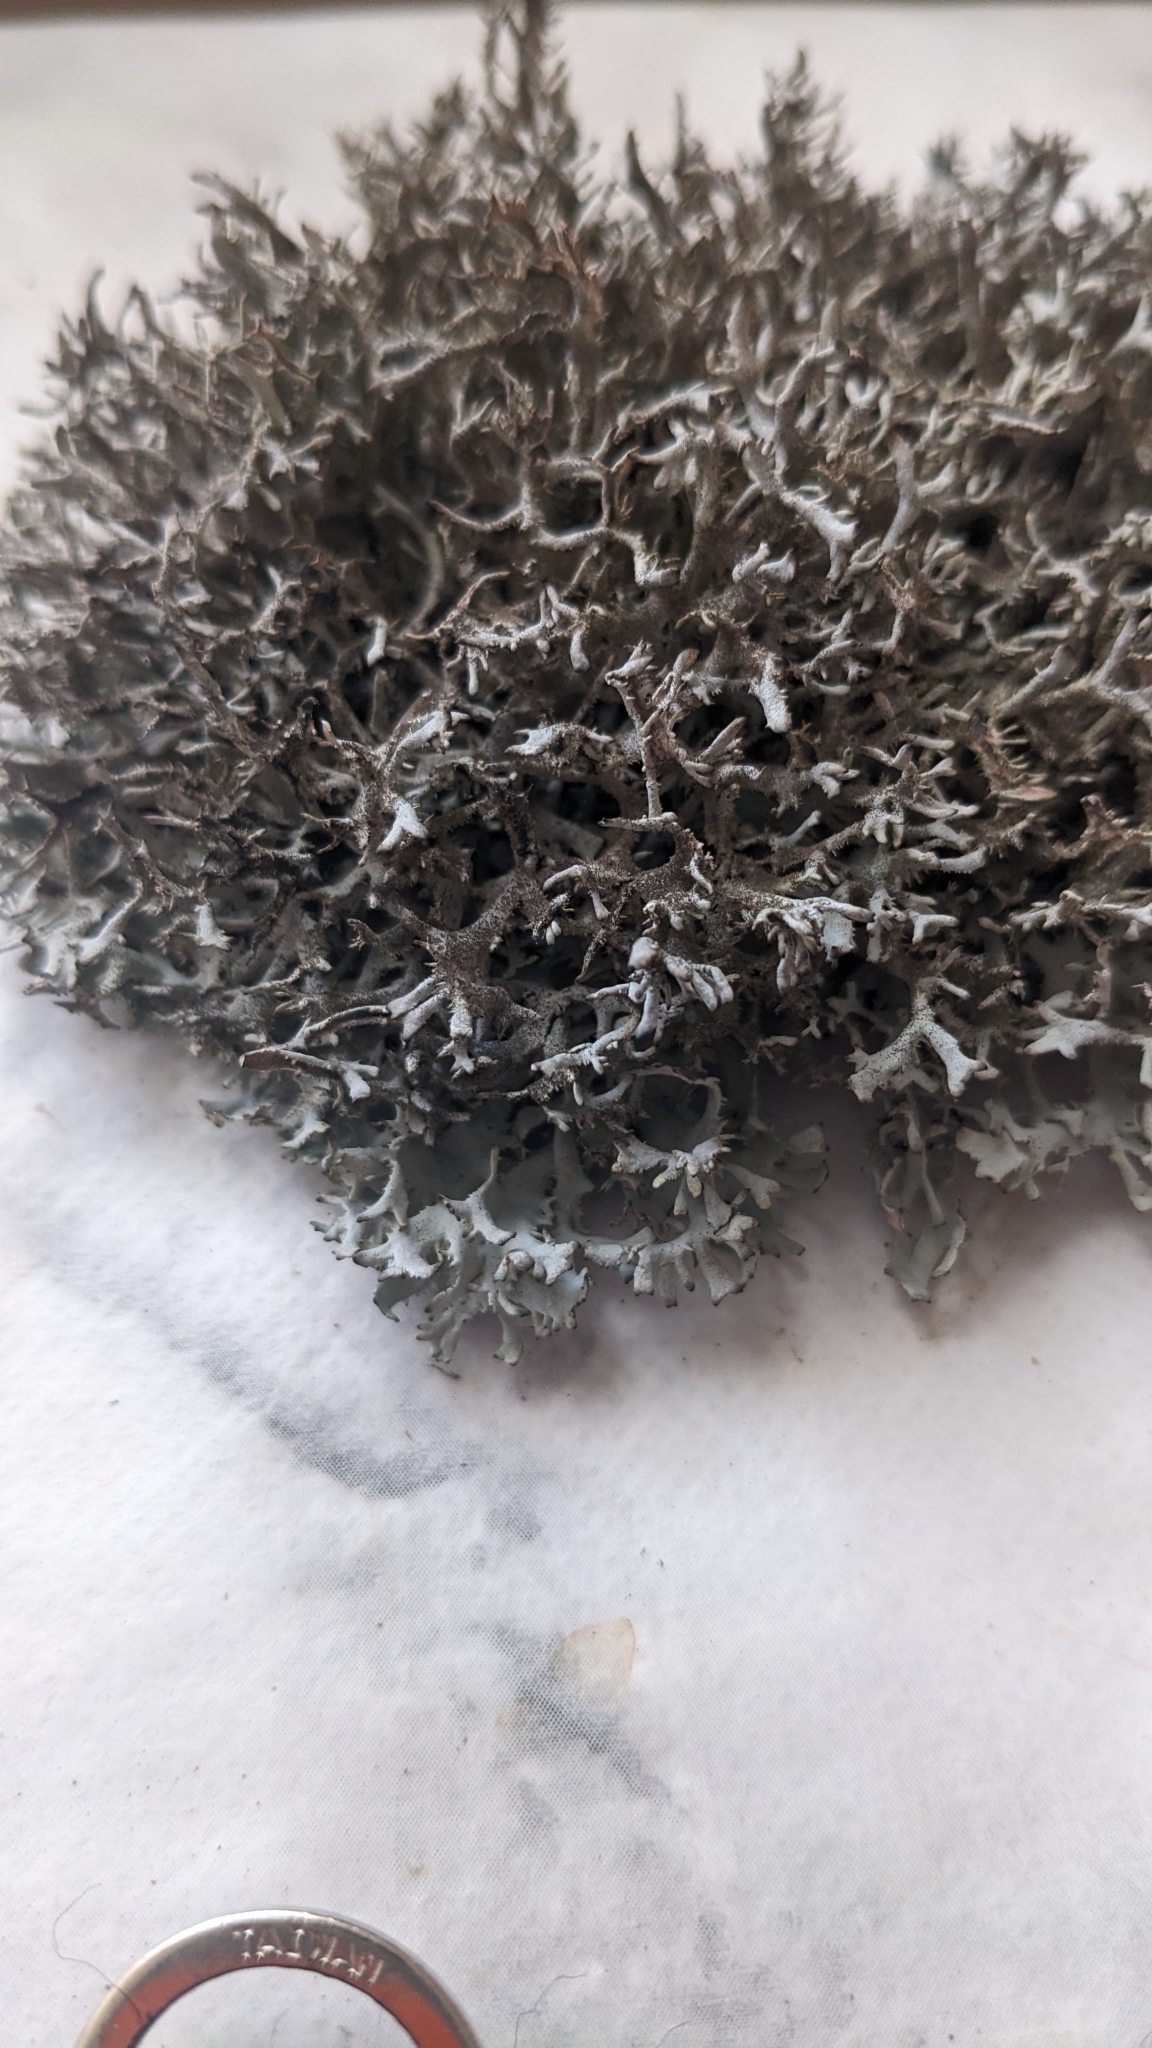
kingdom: Fungi
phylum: Ascomycota
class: Lecanoromycetes
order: Lecanorales
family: Parmeliaceae
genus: Pseudevernia
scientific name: Pseudevernia furfuracea
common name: Tree moss
